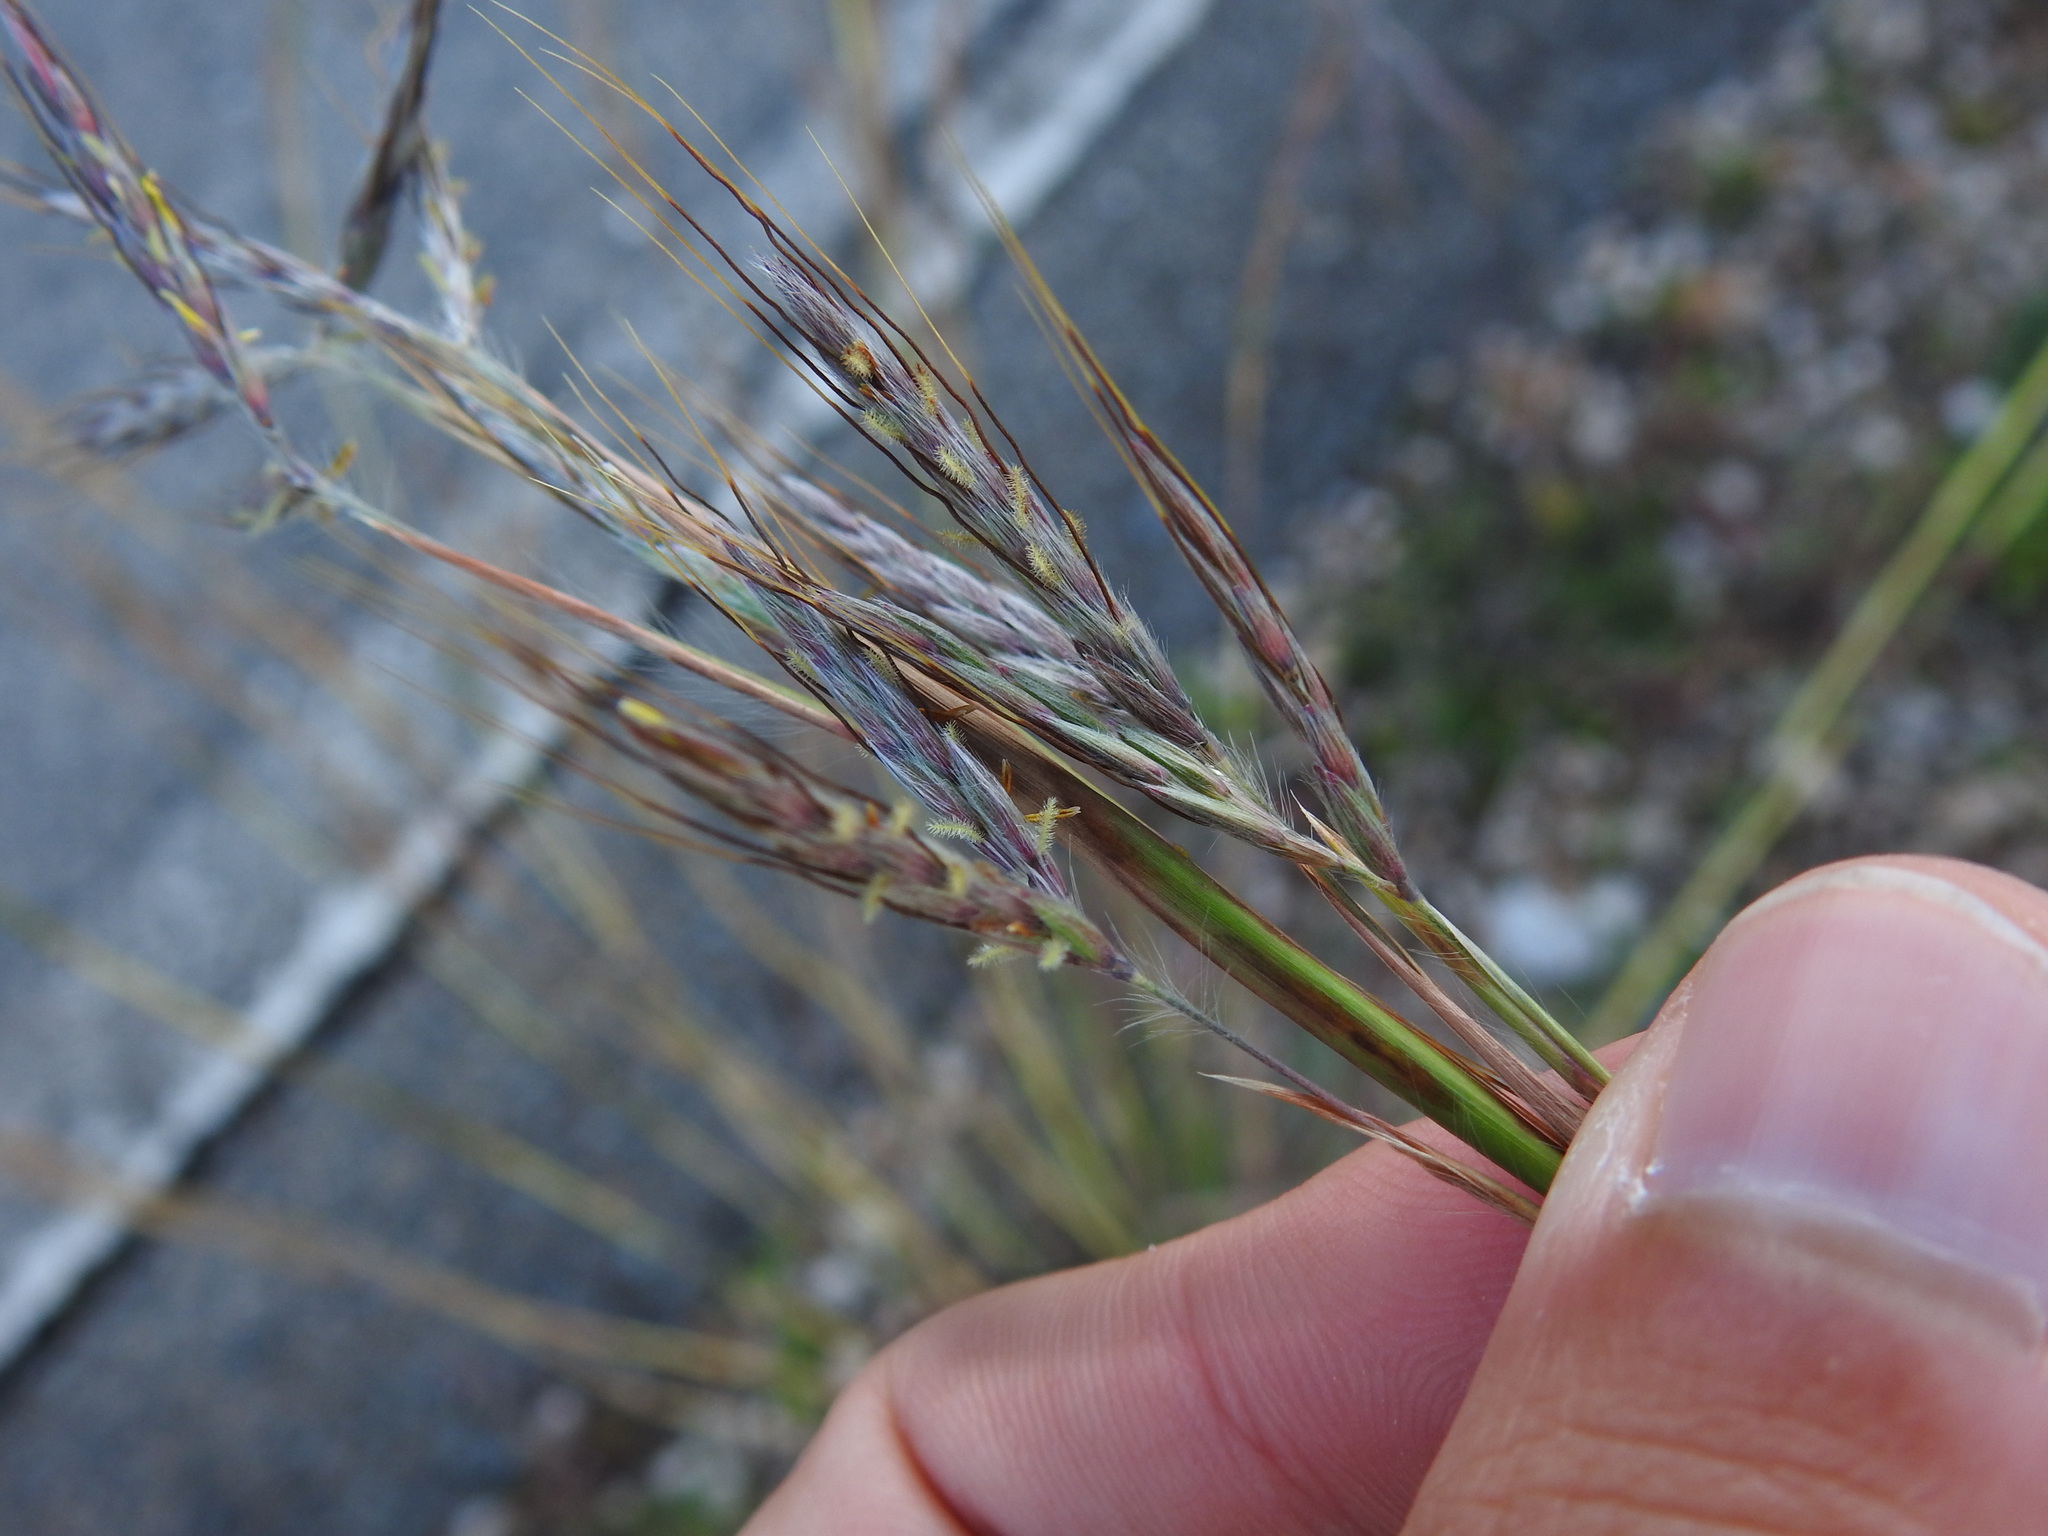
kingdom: Plantae
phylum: Tracheophyta
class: Liliopsida
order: Poales
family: Poaceae
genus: Hyparrhenia
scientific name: Hyparrhenia hirta
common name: Thatching grass
